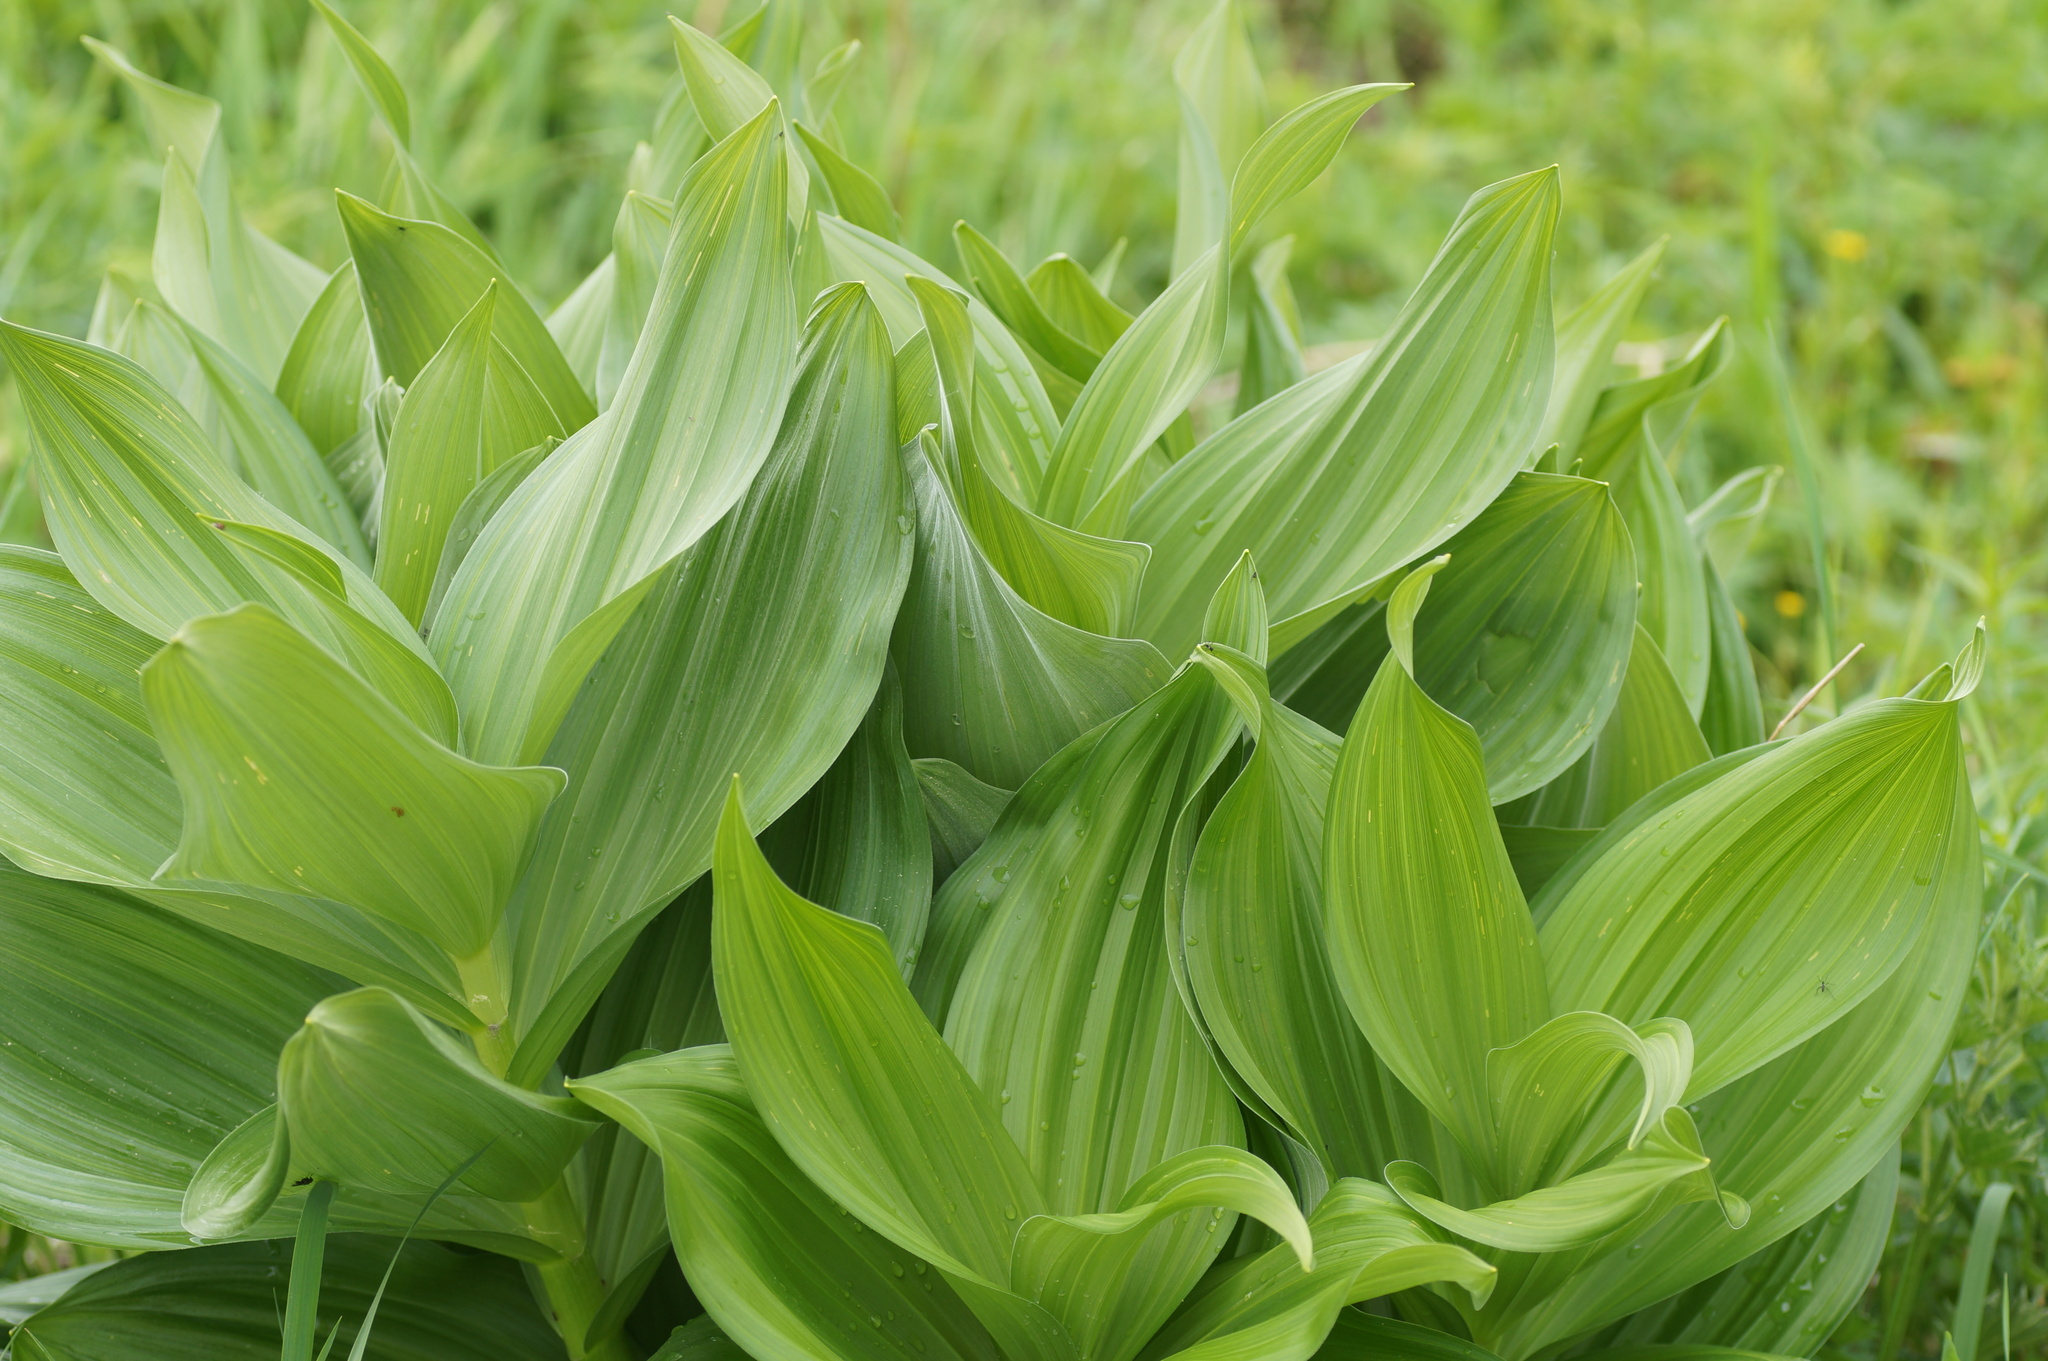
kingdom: Plantae
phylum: Tracheophyta
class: Liliopsida
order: Liliales
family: Melanthiaceae
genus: Veratrum
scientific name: Veratrum lobelianum
